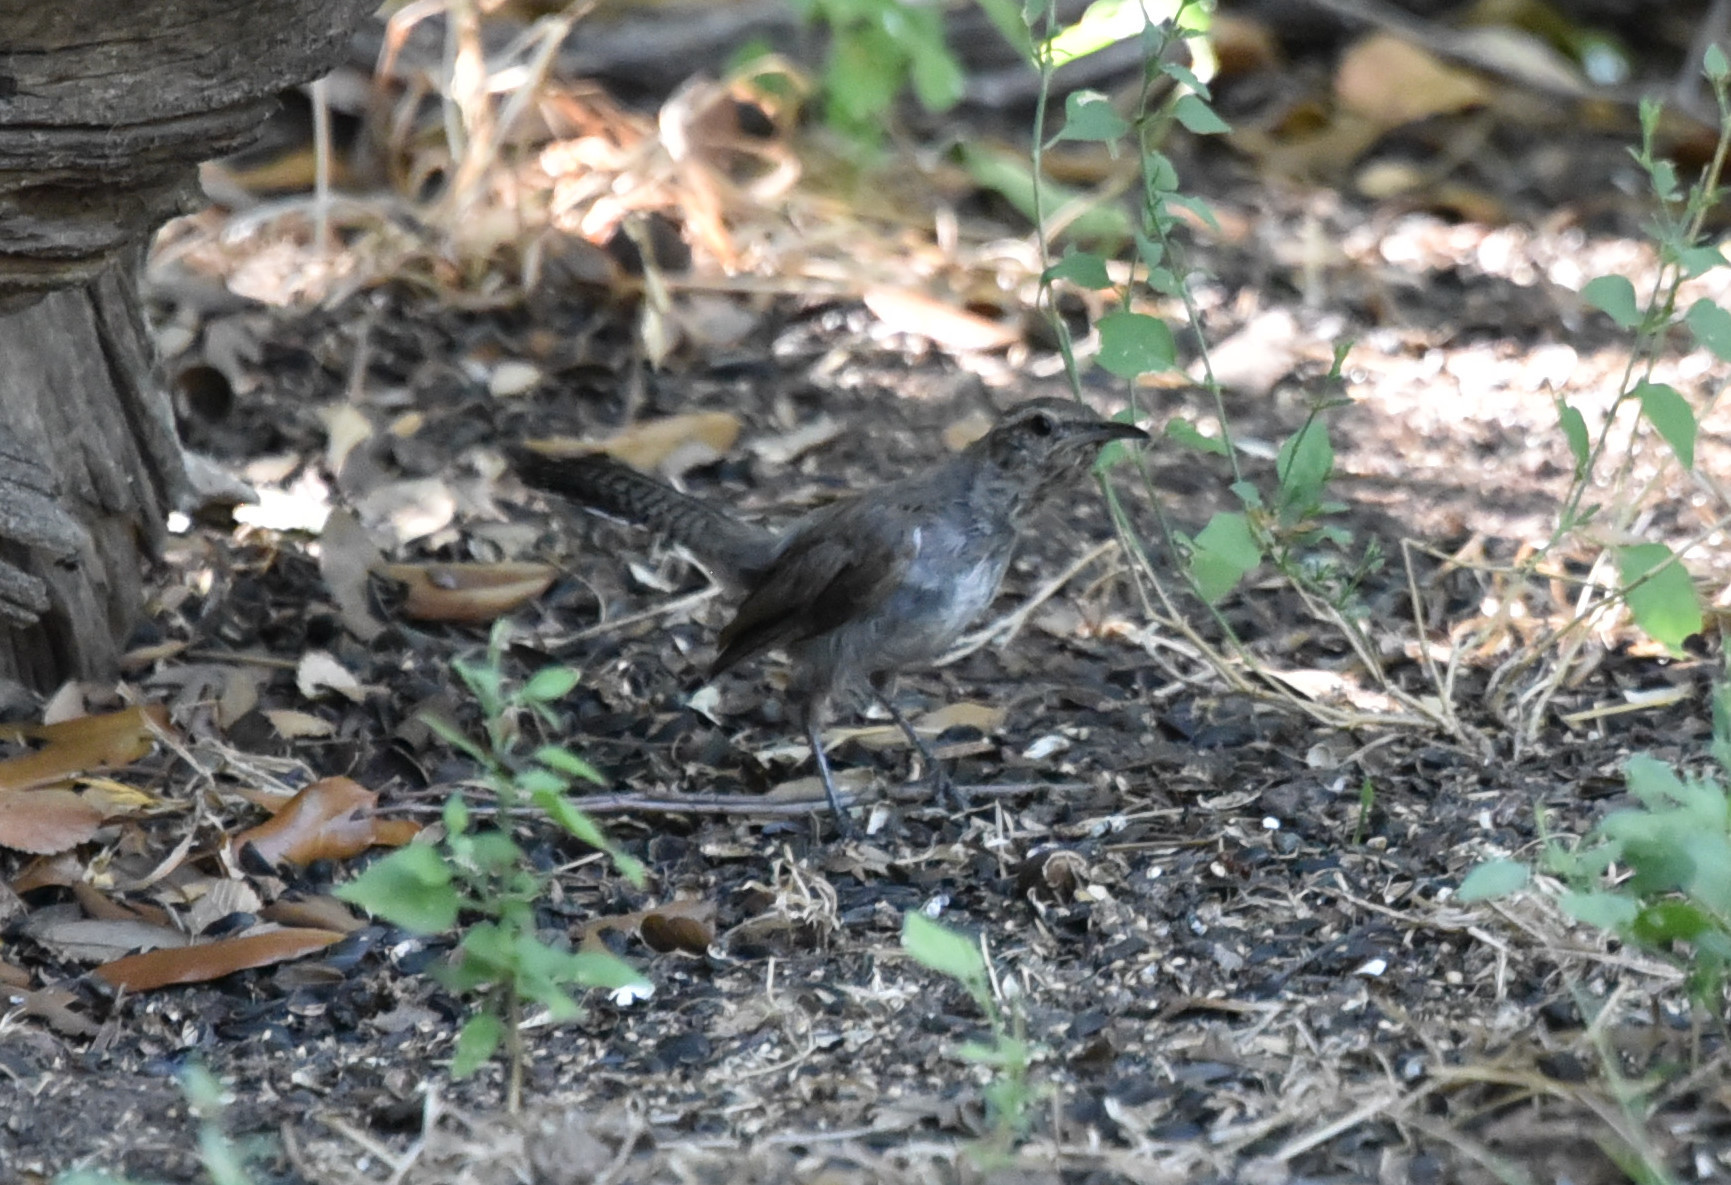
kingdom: Animalia
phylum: Chordata
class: Aves
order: Passeriformes
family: Troglodytidae
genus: Thryomanes
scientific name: Thryomanes bewickii
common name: Bewick's wren
